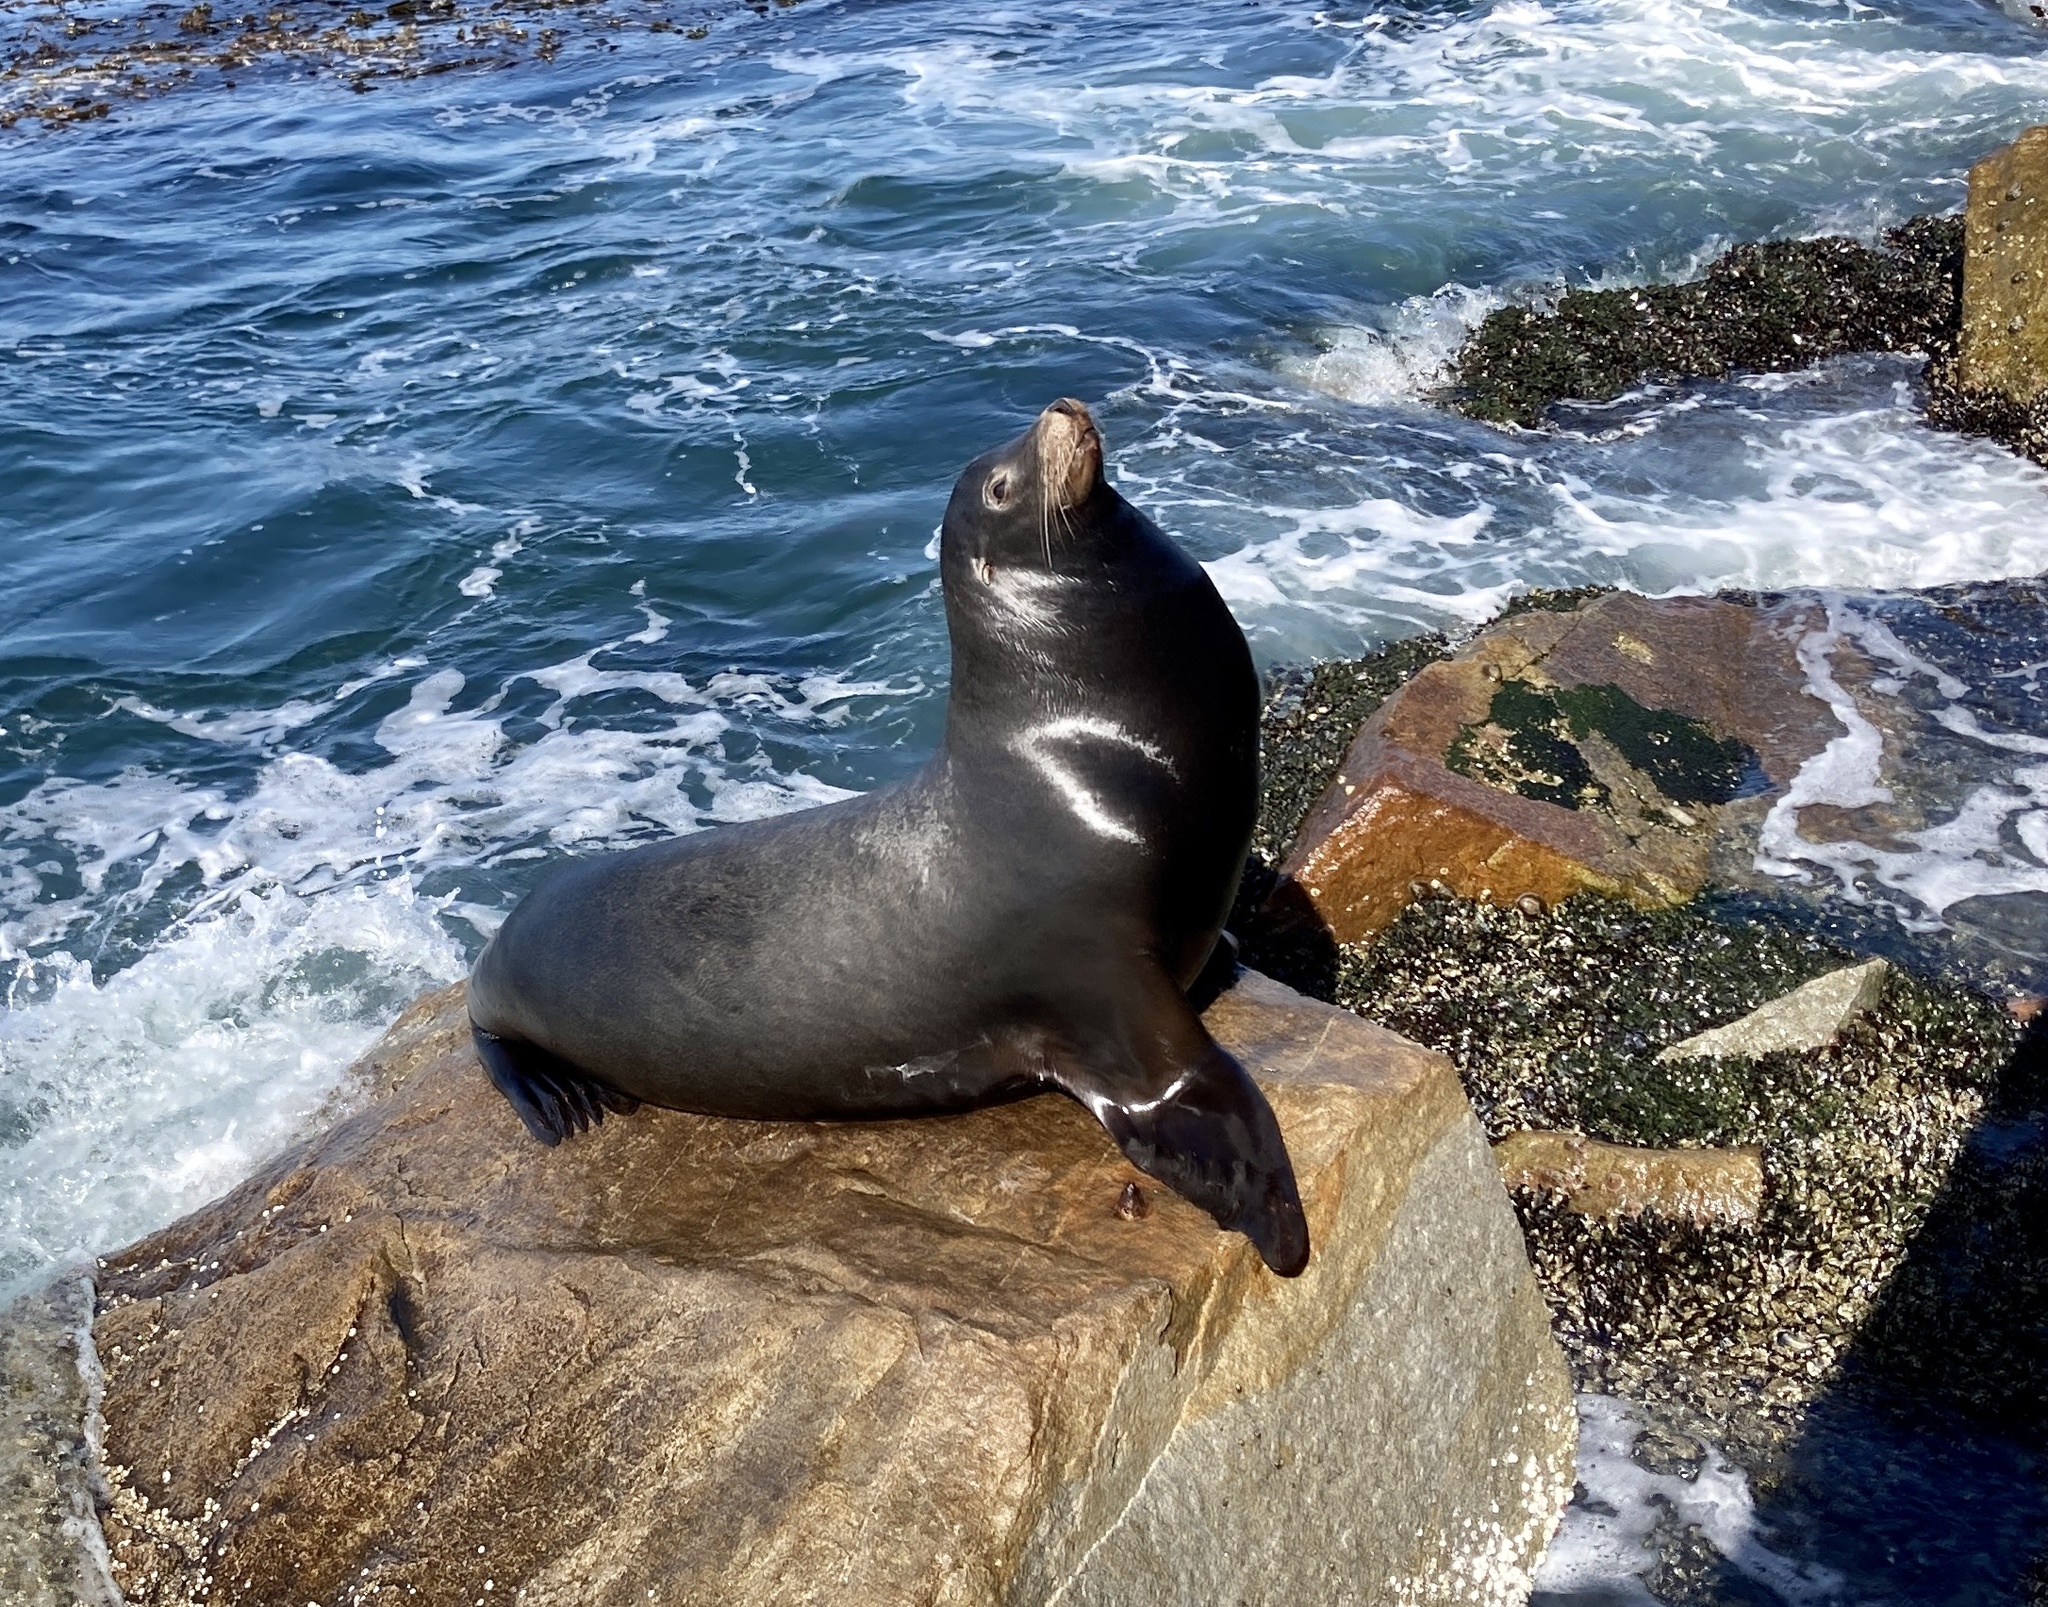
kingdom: Animalia
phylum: Chordata
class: Mammalia
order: Carnivora
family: Otariidae
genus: Zalophus
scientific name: Zalophus californianus
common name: California sea lion
